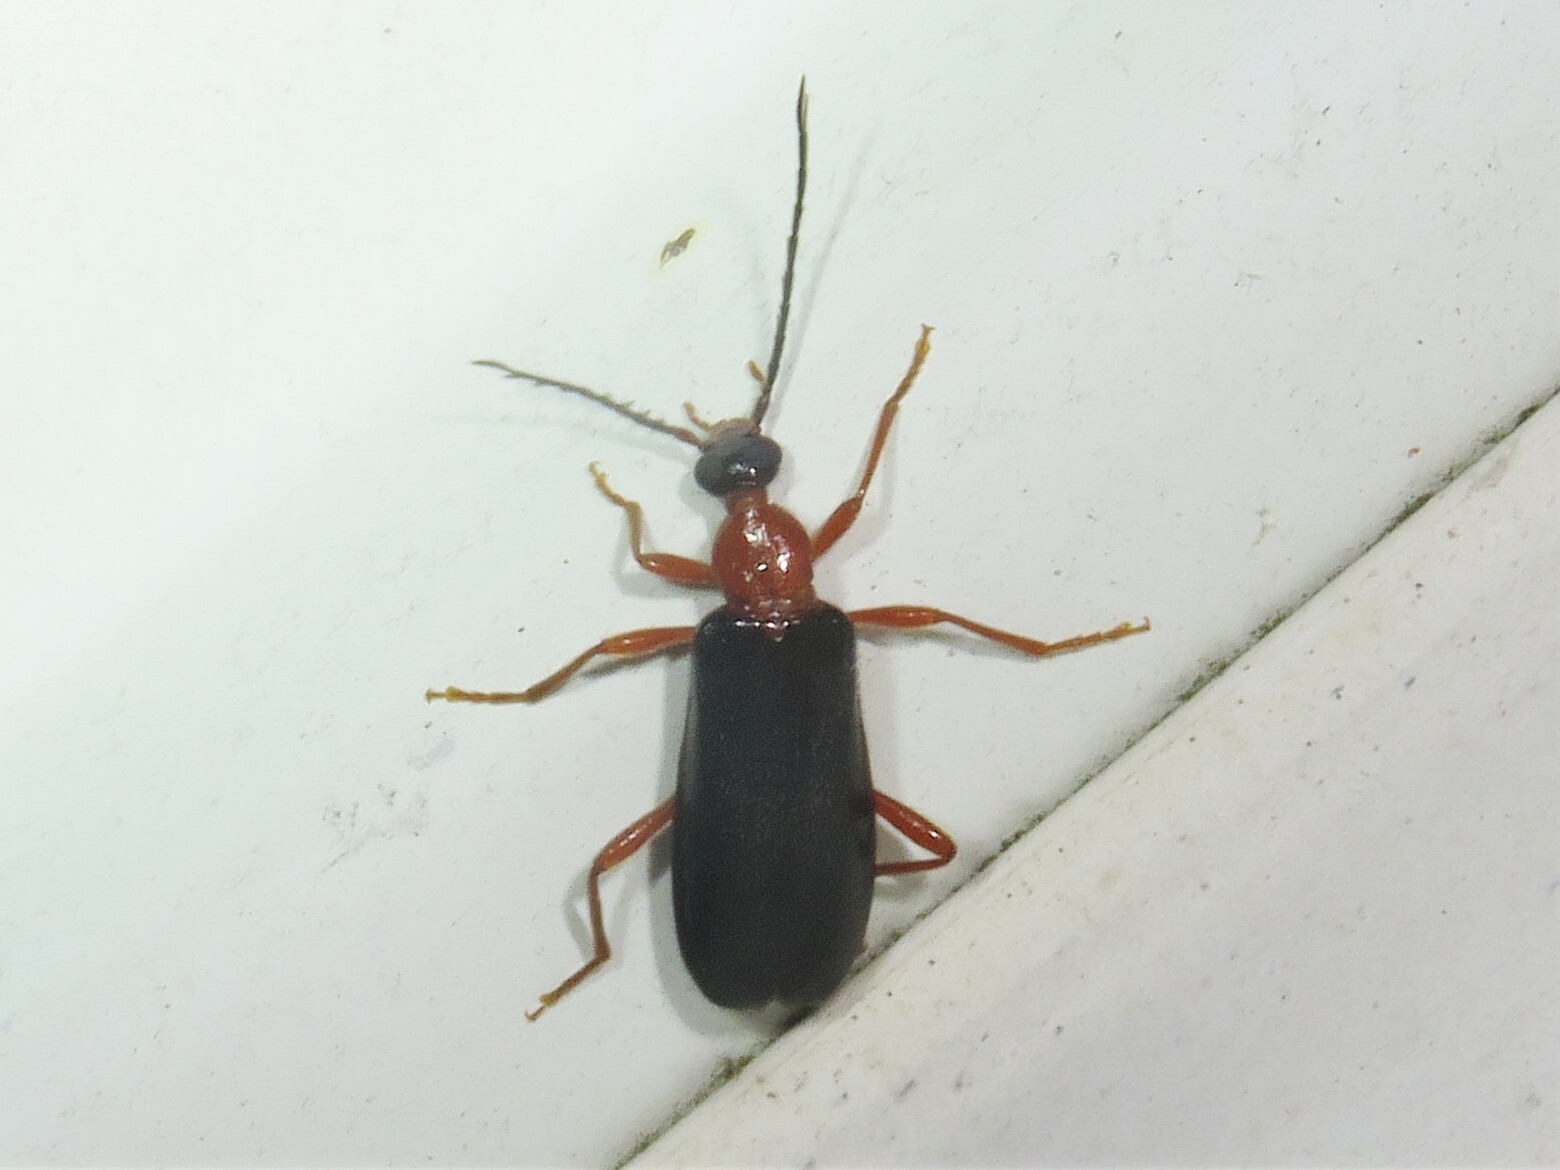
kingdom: Animalia
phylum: Arthropoda
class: Insecta
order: Coleoptera
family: Pyrochroidae
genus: Dendroides
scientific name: Dendroides canadensis
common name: Canada fire-colored beetle
